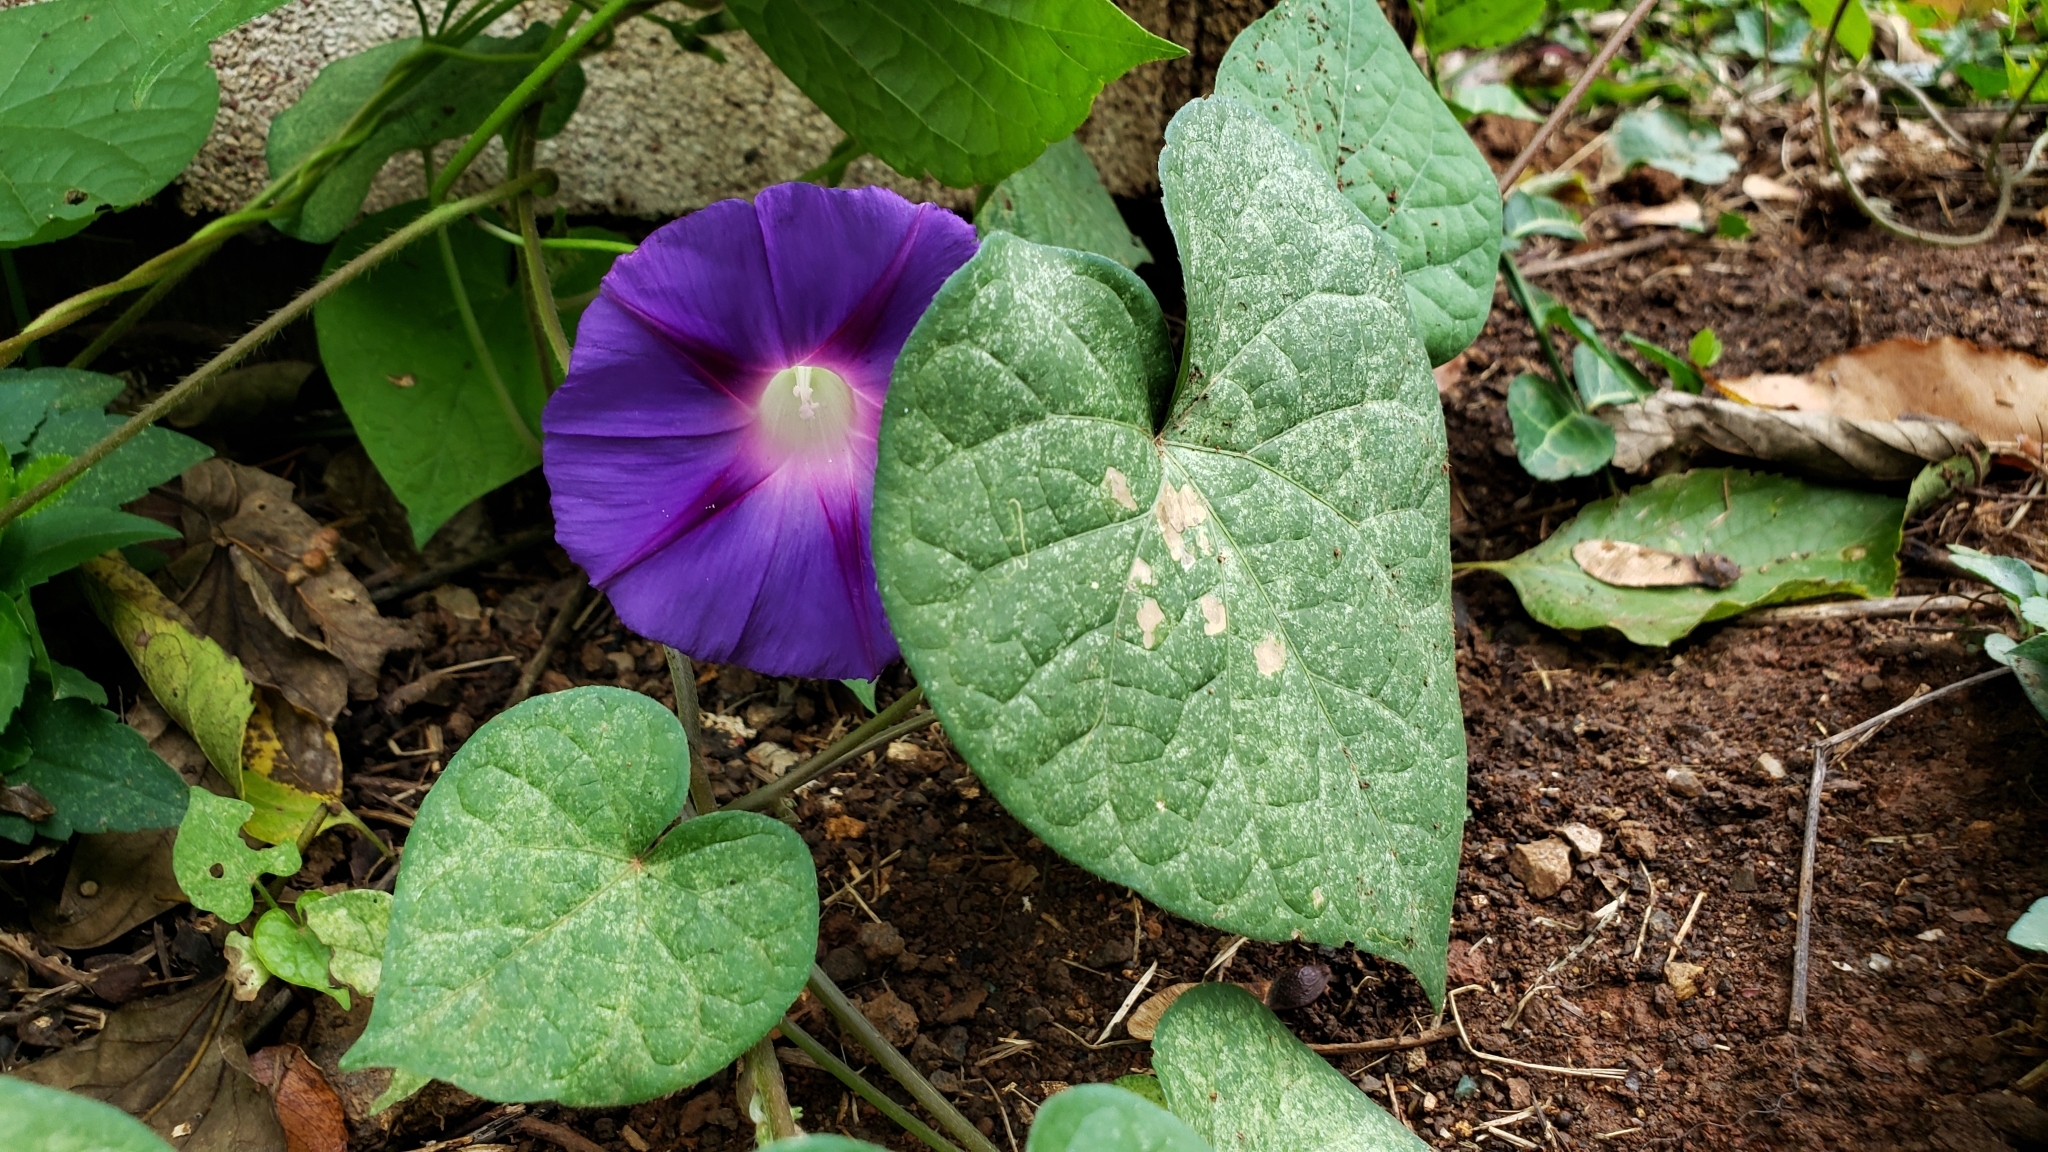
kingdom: Plantae
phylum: Tracheophyta
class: Magnoliopsida
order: Solanales
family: Convolvulaceae
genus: Ipomoea
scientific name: Ipomoea purpurea
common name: Common morning-glory
